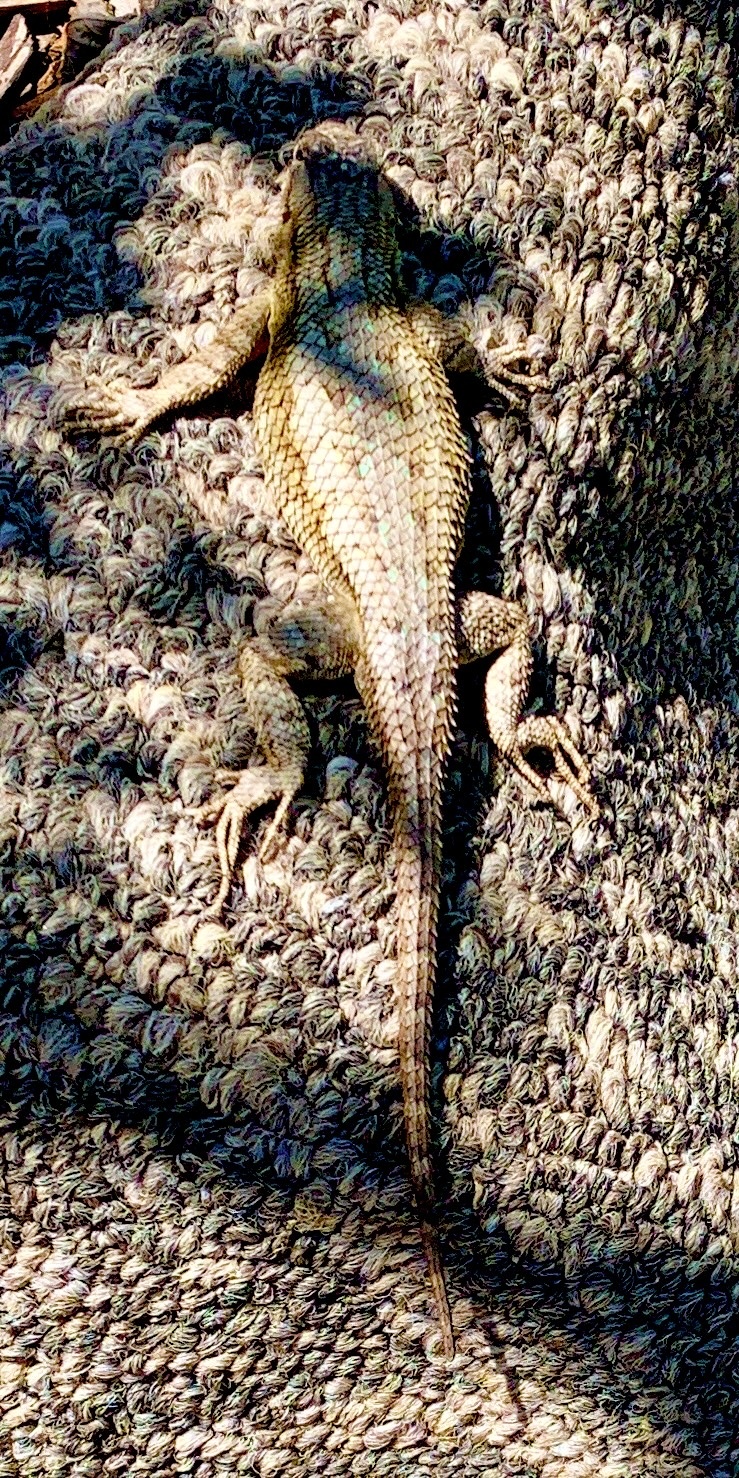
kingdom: Animalia
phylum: Chordata
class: Squamata
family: Phrynosomatidae
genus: Sceloporus
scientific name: Sceloporus occidentalis
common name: Western fence lizard
